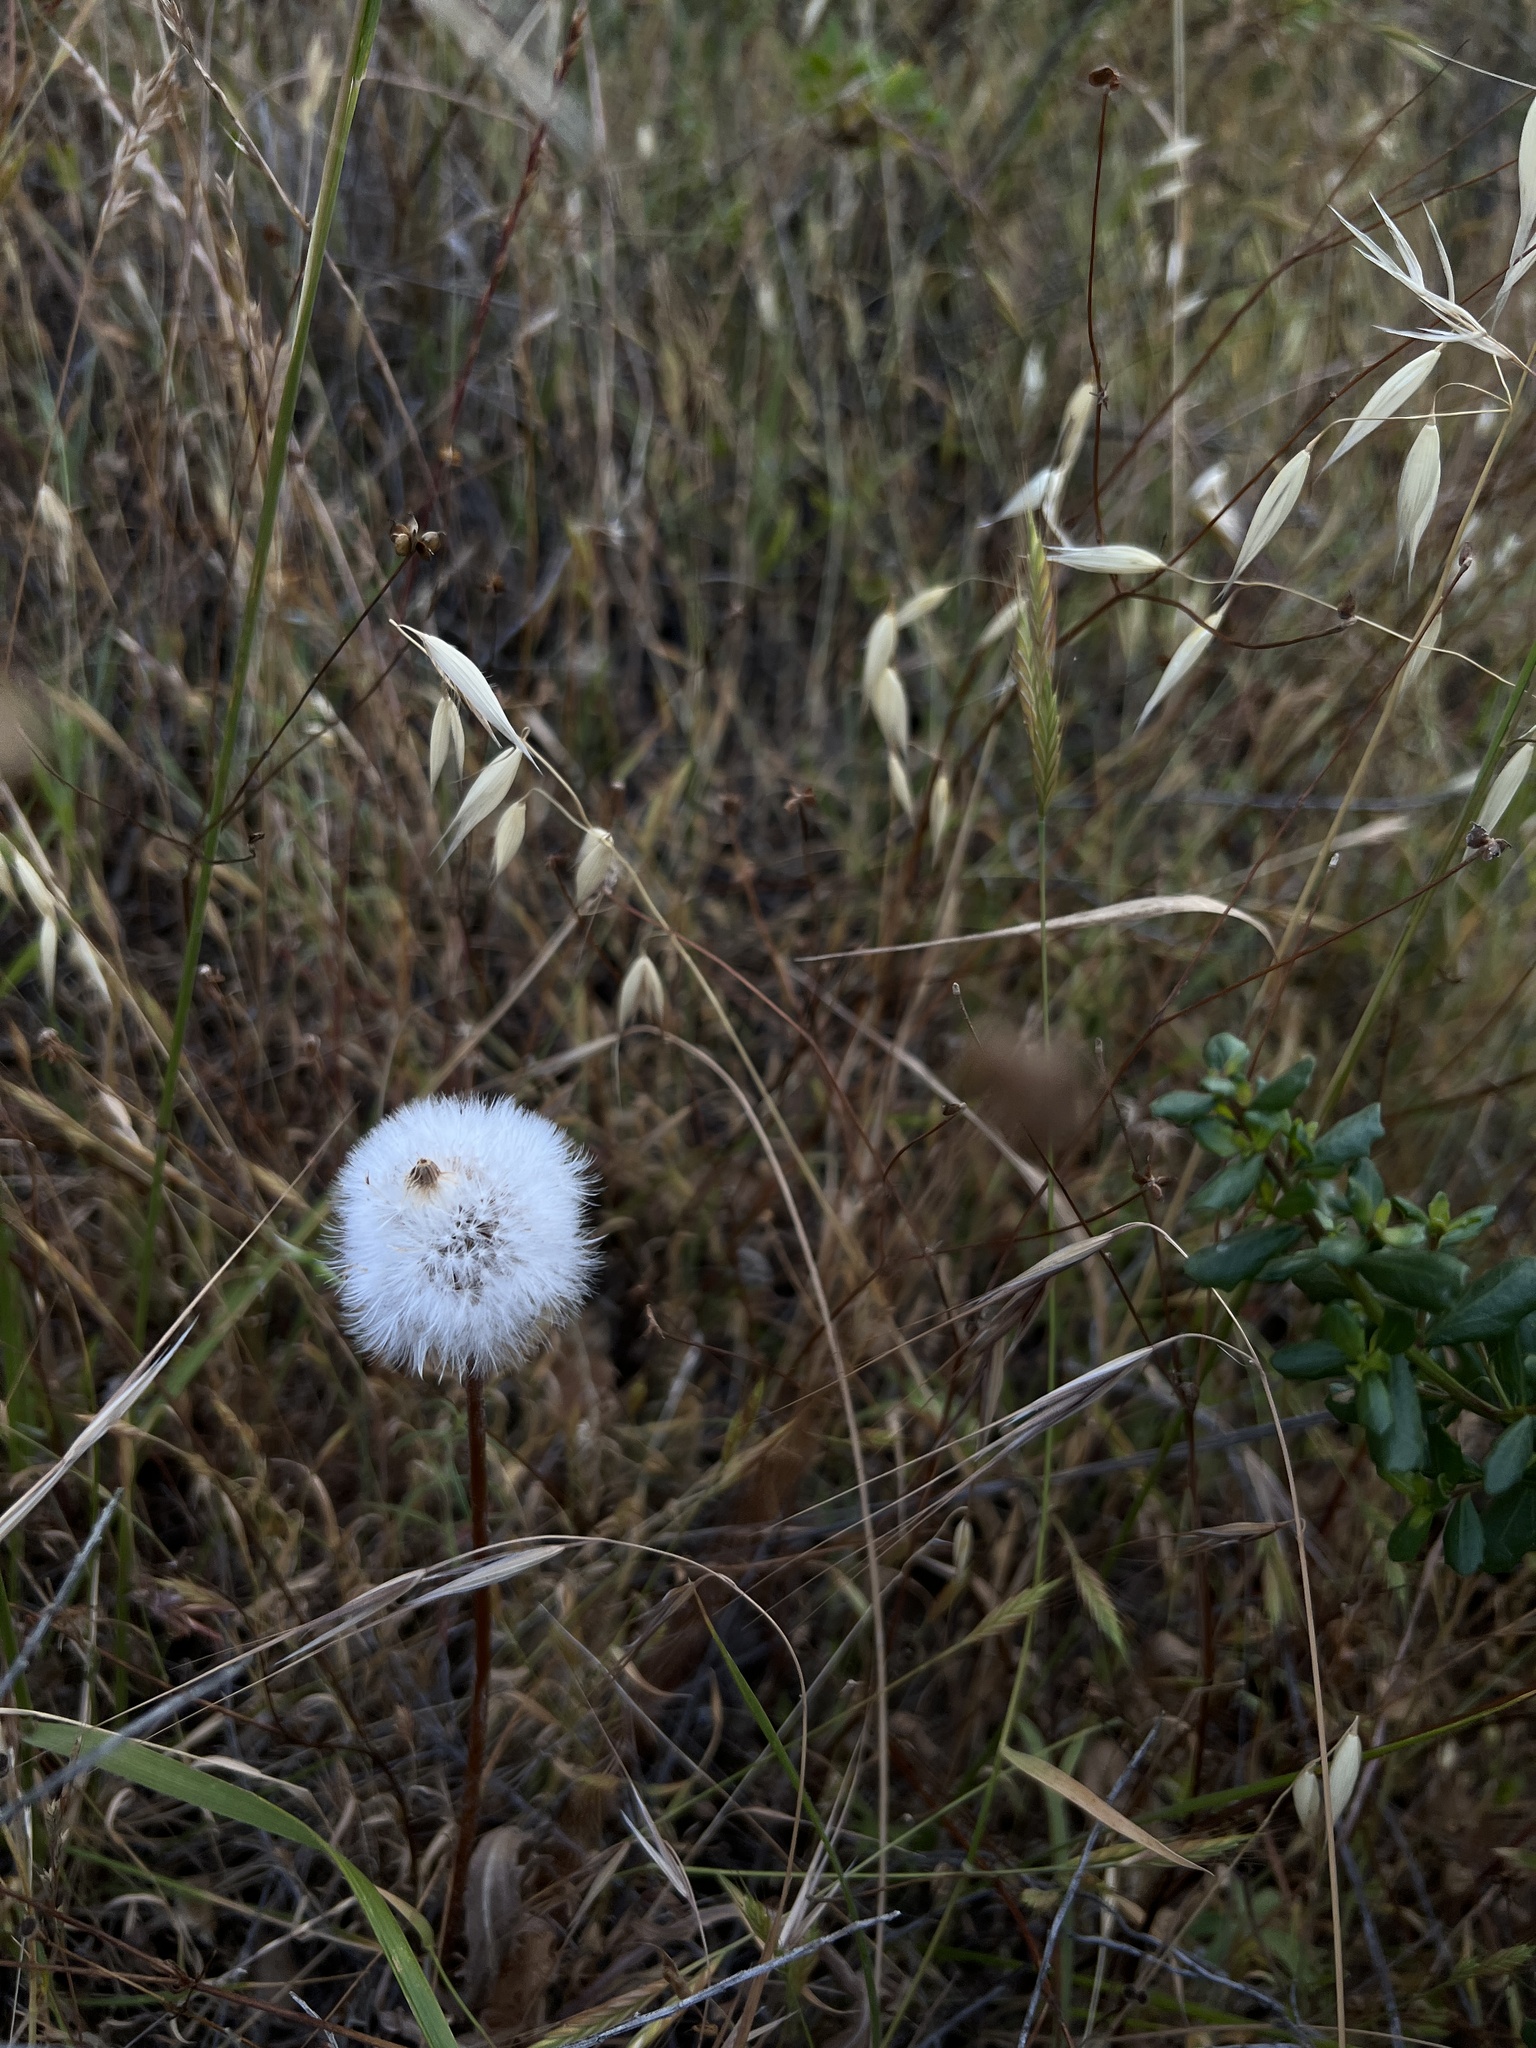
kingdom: Plantae
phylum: Tracheophyta
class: Magnoliopsida
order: Asterales
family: Asteraceae
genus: Agoseris
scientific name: Agoseris grandiflora
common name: Grassland agoseris
